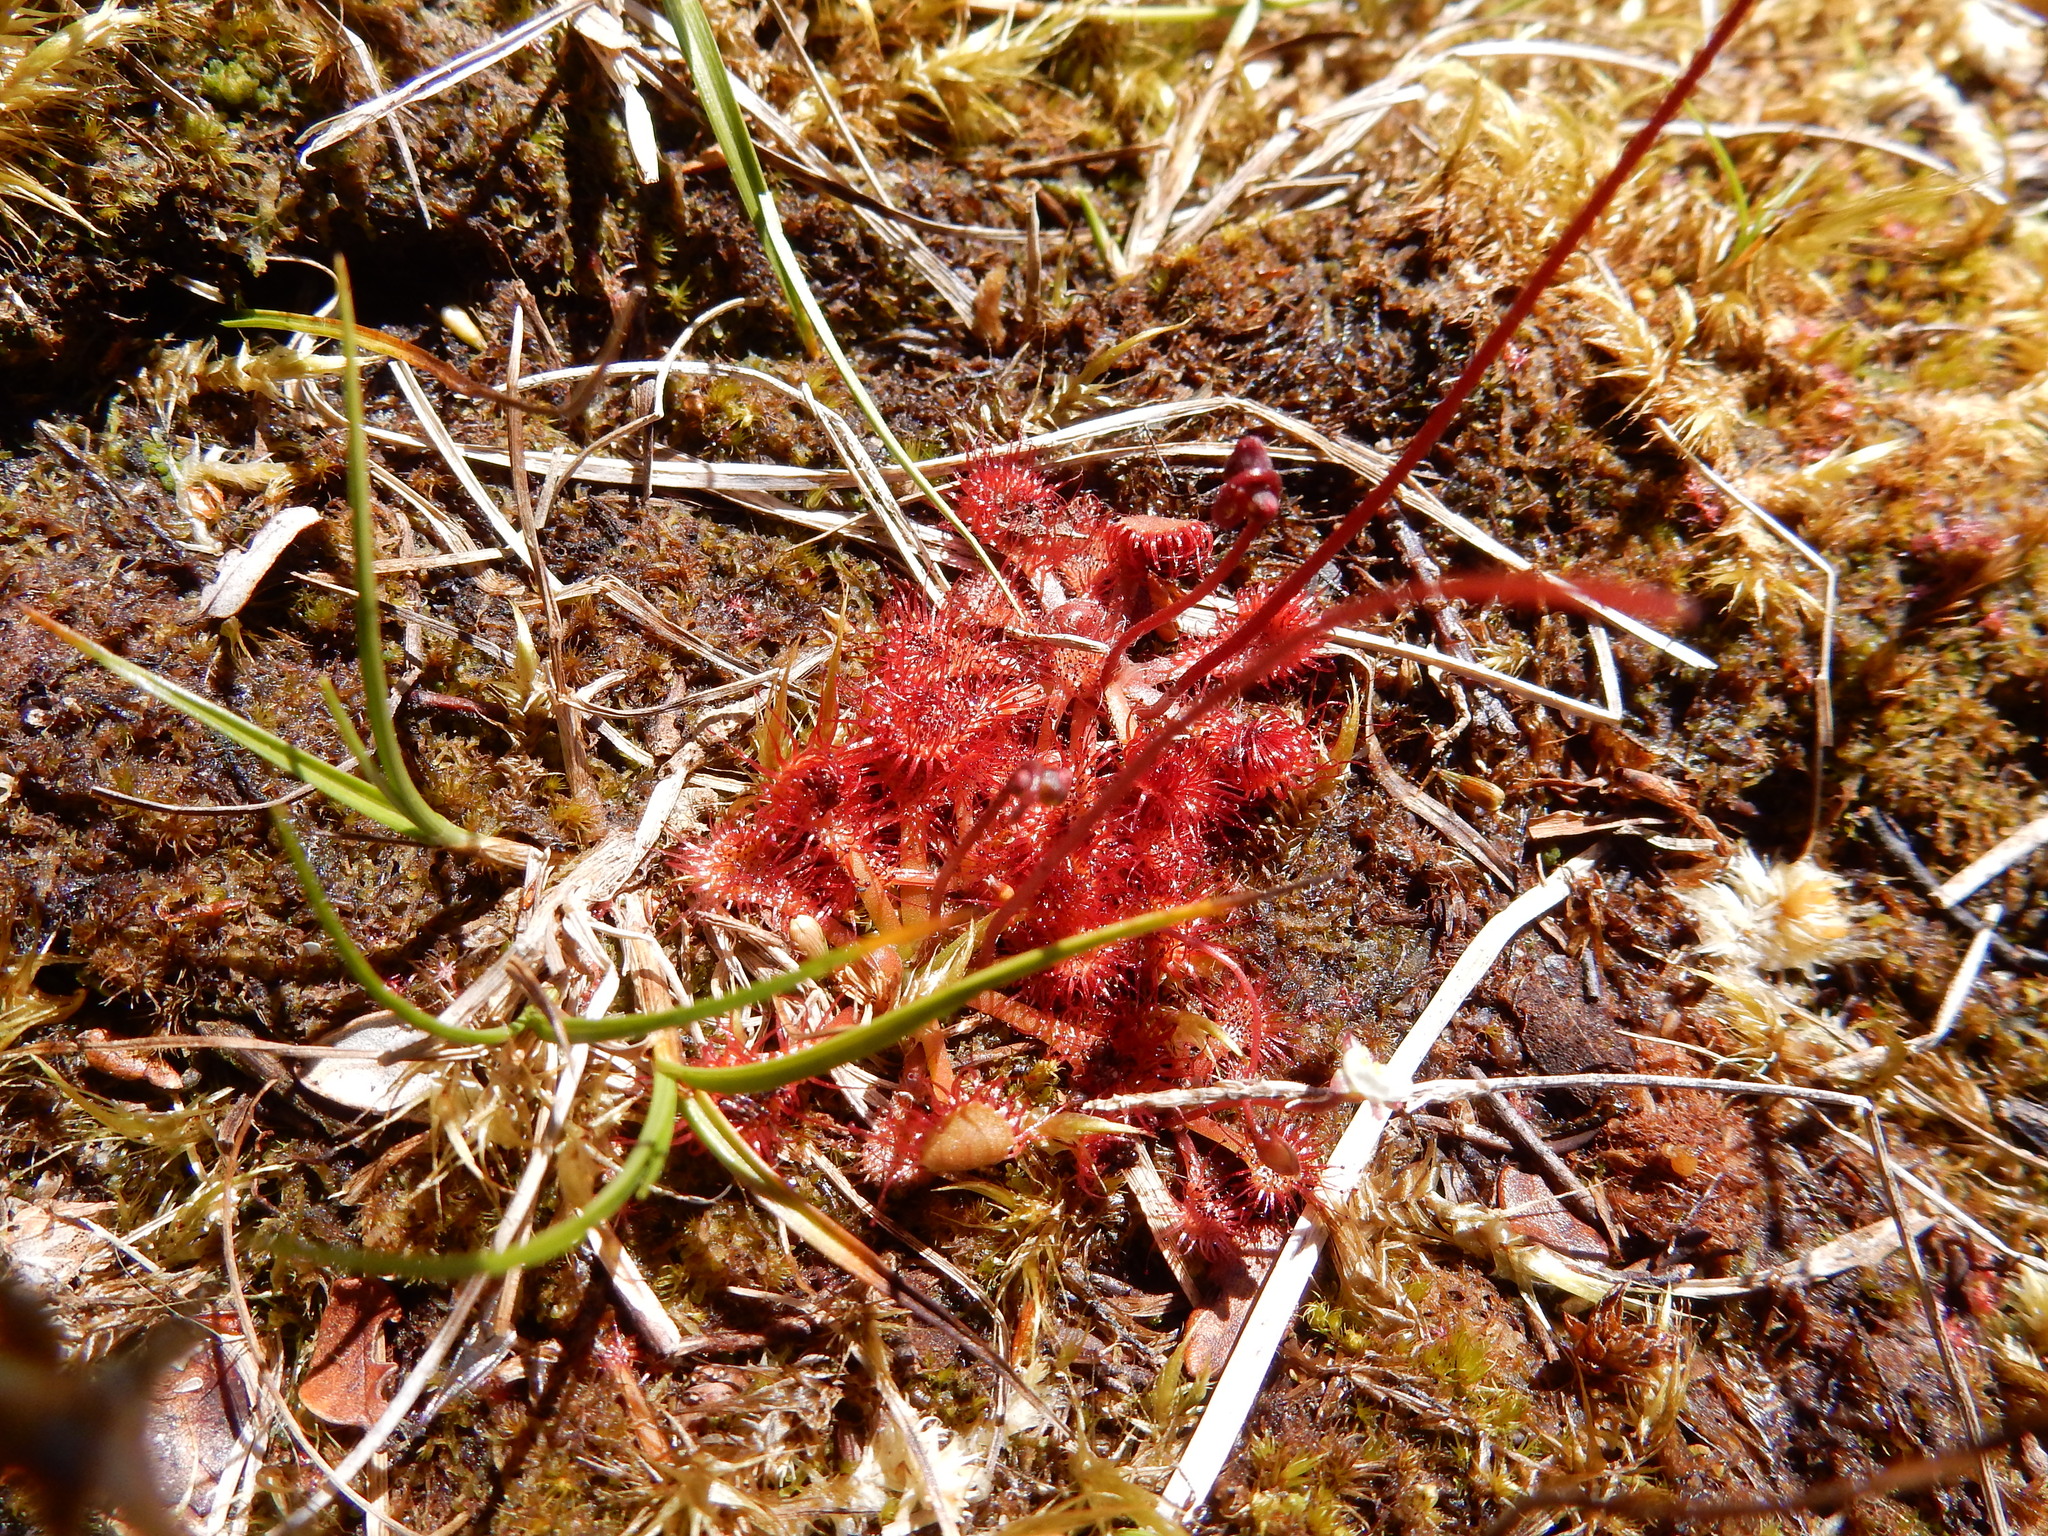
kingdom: Plantae
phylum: Tracheophyta
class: Magnoliopsida
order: Caryophyllales
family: Droseraceae
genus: Drosera
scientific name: Drosera spatulata
